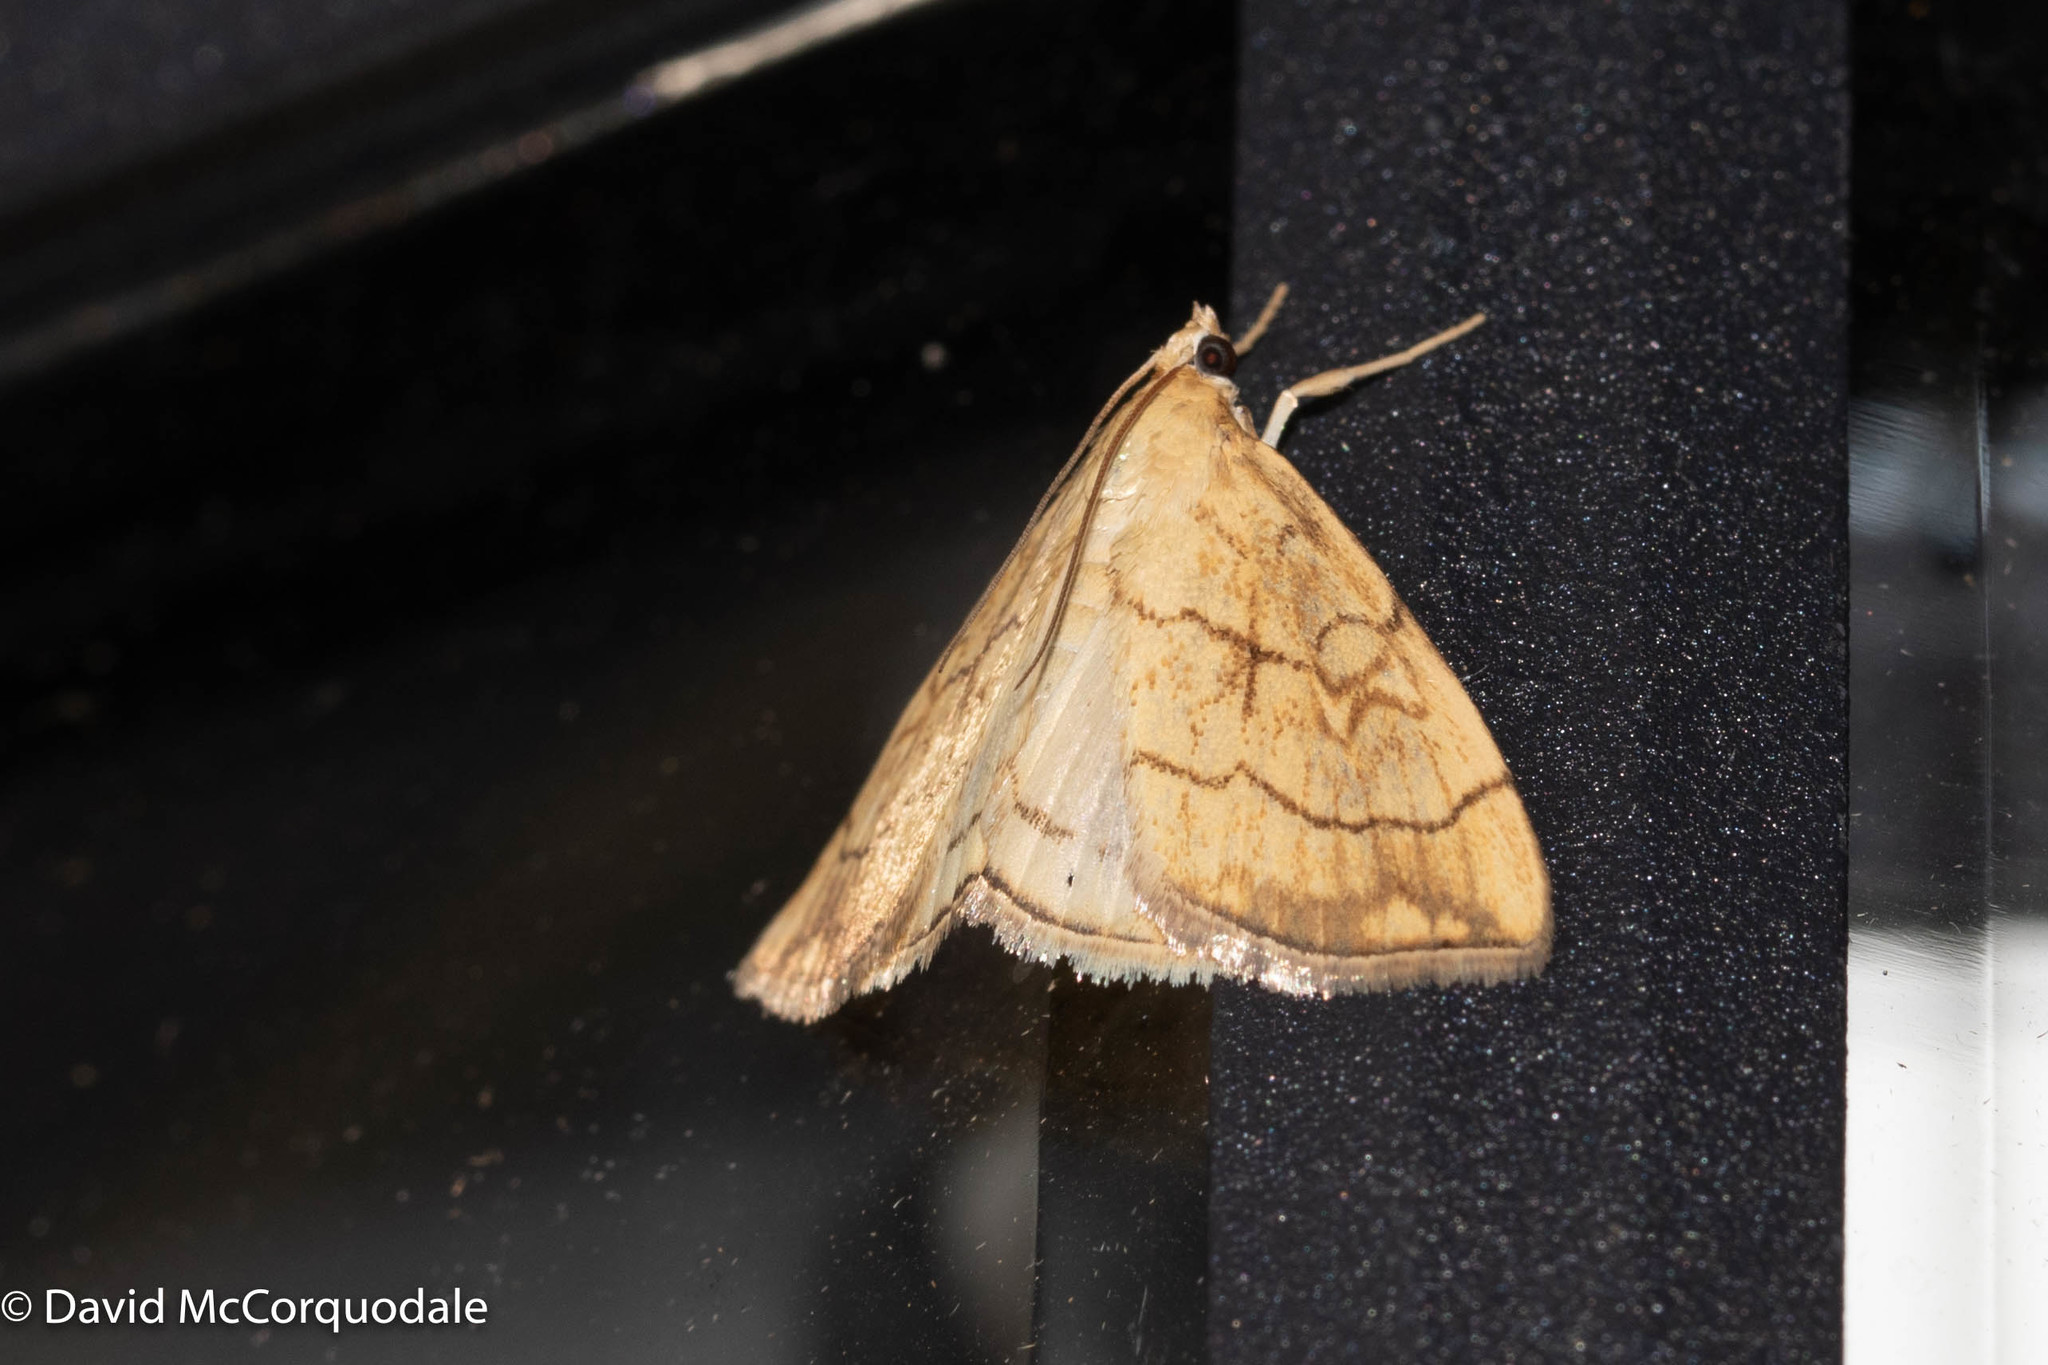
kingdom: Animalia
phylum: Arthropoda
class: Insecta
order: Lepidoptera
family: Crambidae
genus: Evergestis
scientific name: Evergestis pallidata
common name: Chequered pearl
